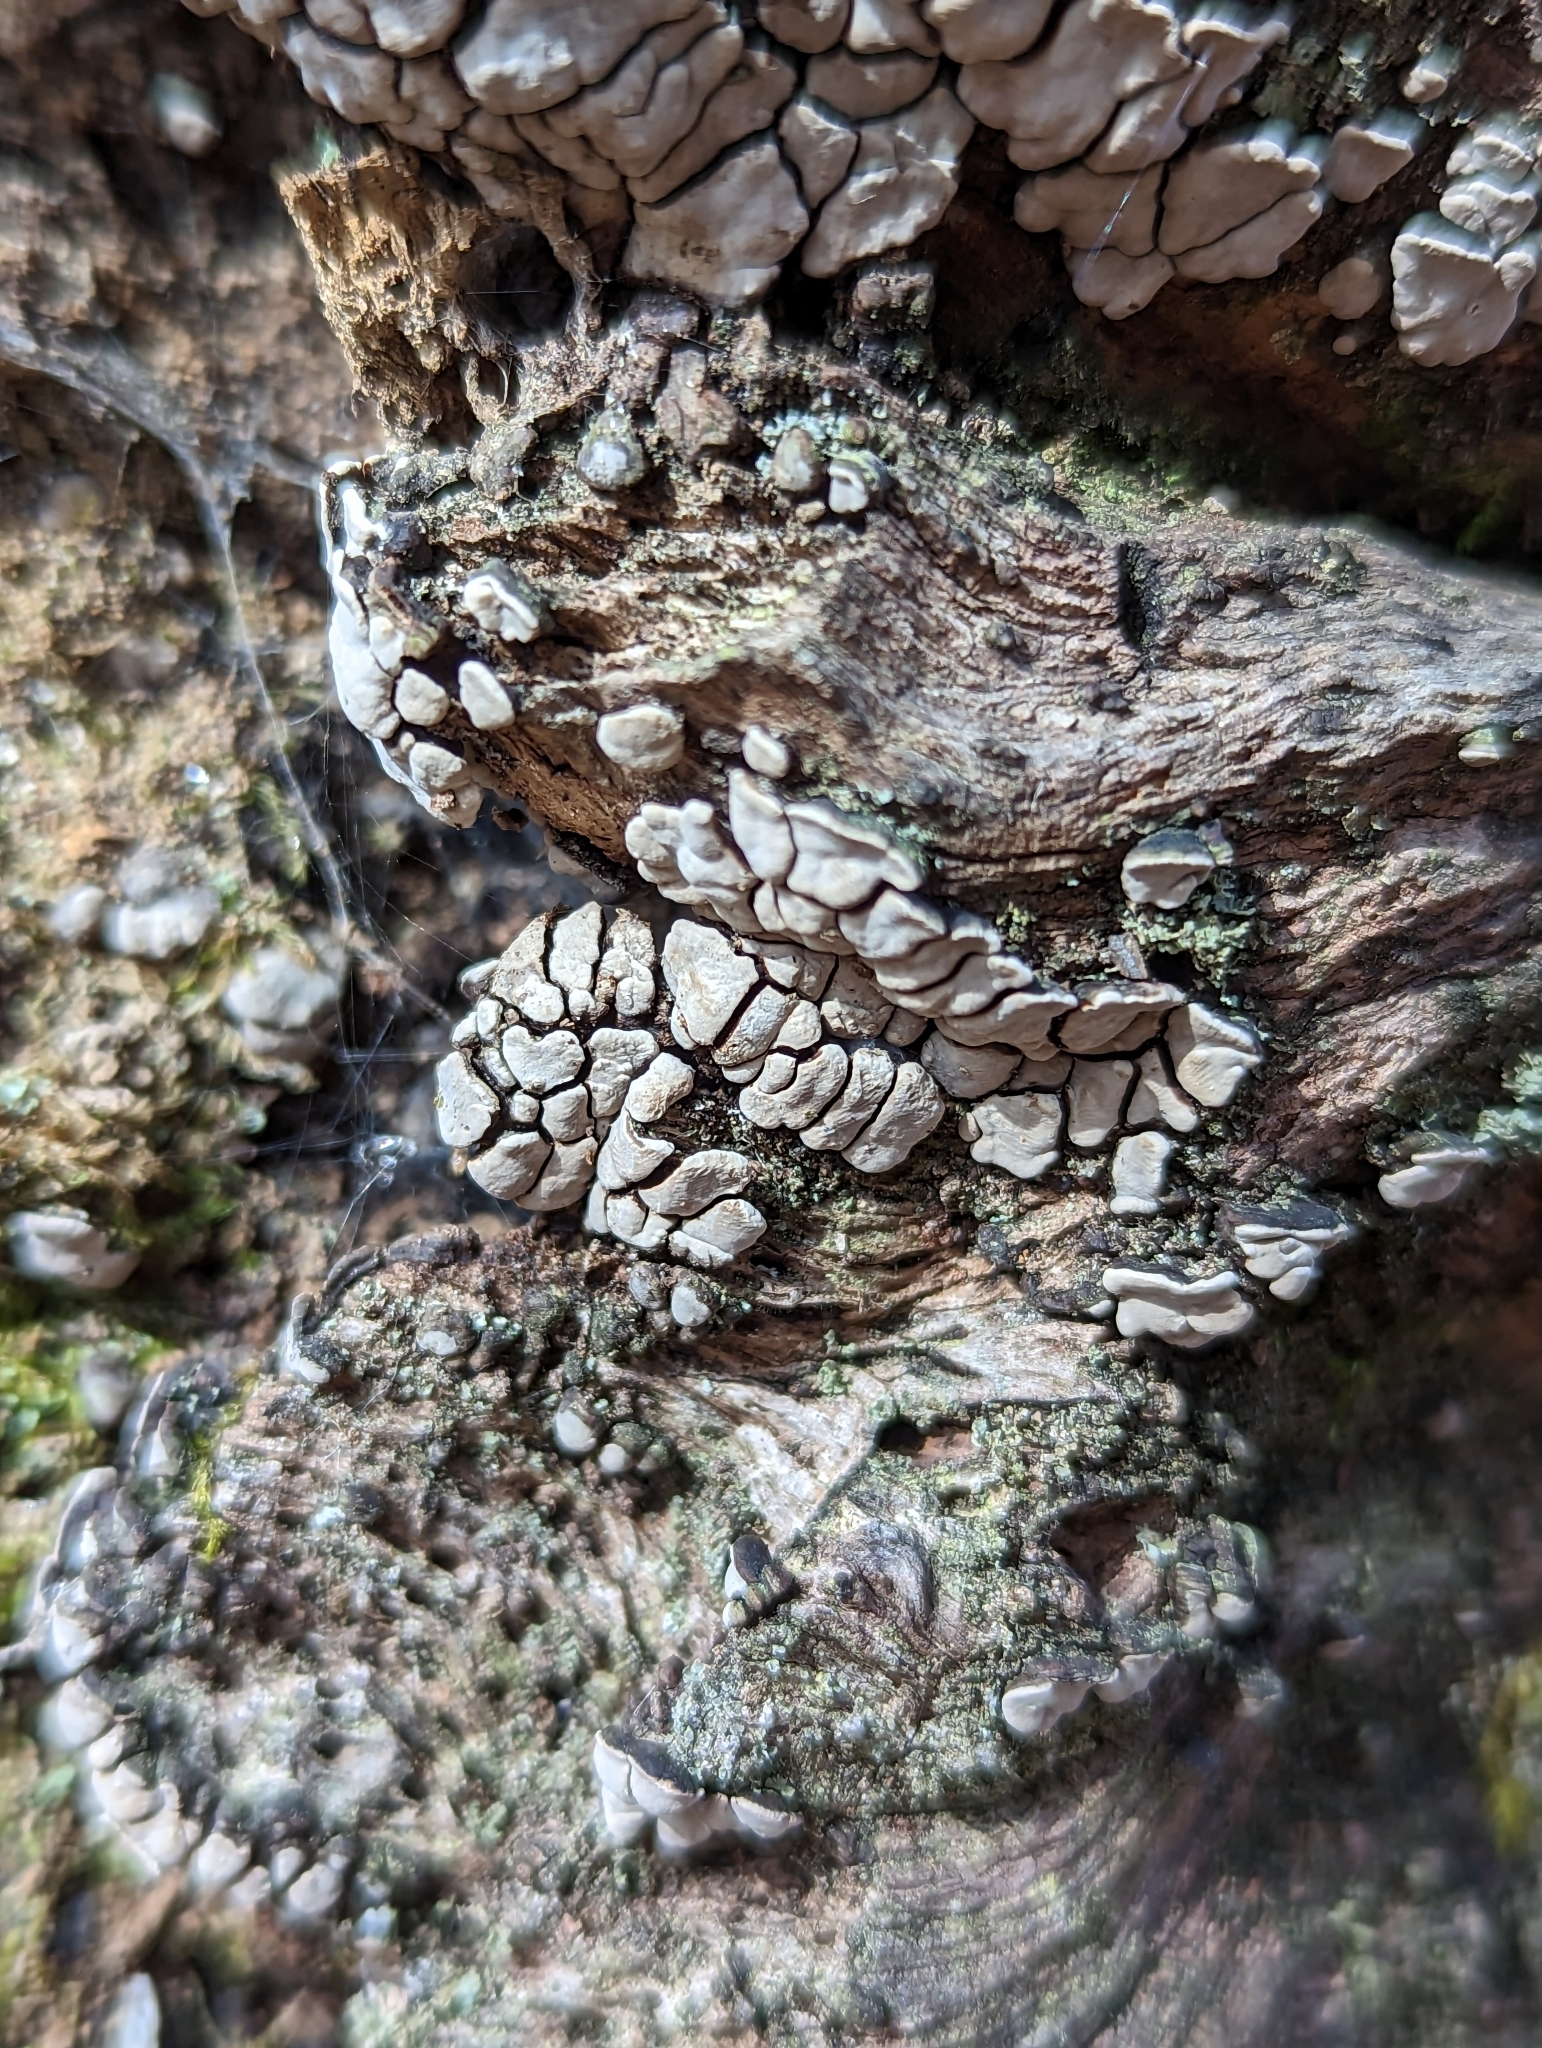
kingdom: Fungi
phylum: Basidiomycota
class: Agaricomycetes
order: Russulales
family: Stereaceae
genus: Xylobolus
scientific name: Xylobolus frustulatus
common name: Ceramic parchment
